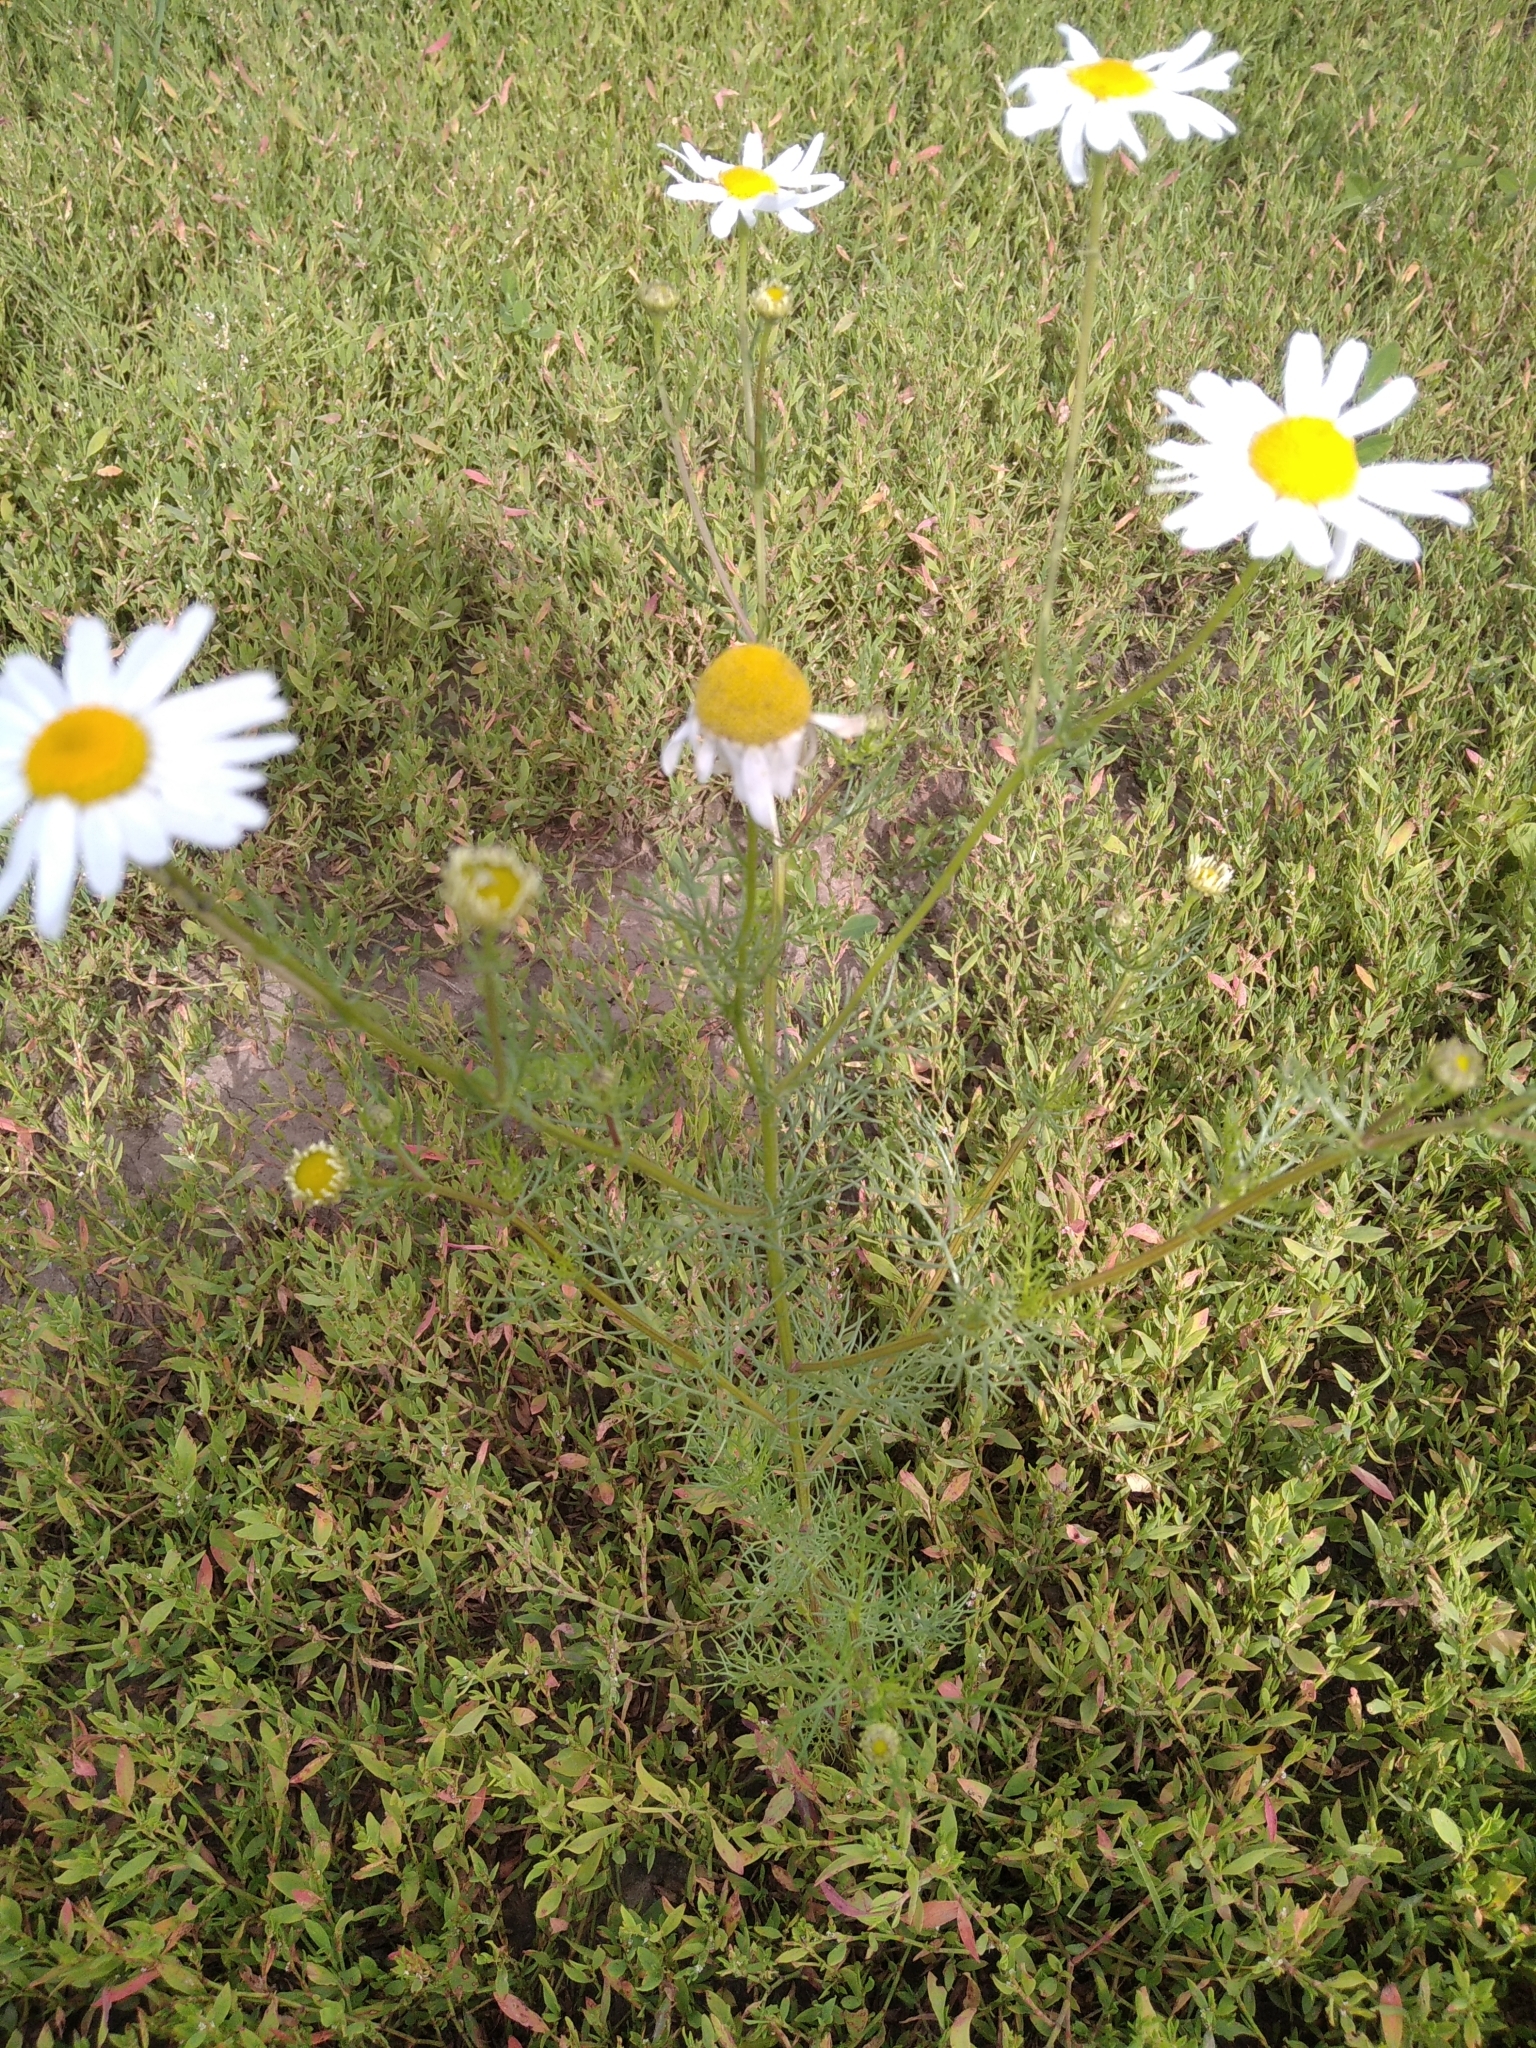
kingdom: Plantae
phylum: Tracheophyta
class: Magnoliopsida
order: Asterales
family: Asteraceae
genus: Tripleurospermum
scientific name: Tripleurospermum inodorum
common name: Scentless mayweed
